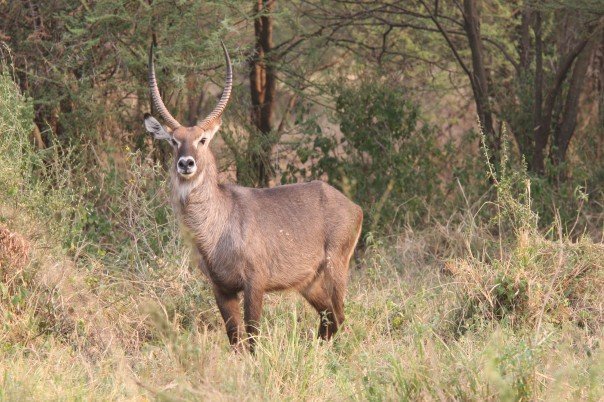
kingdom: Animalia
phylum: Chordata
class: Mammalia
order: Artiodactyla
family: Bovidae
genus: Kobus
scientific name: Kobus ellipsiprymnus
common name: Waterbuck
